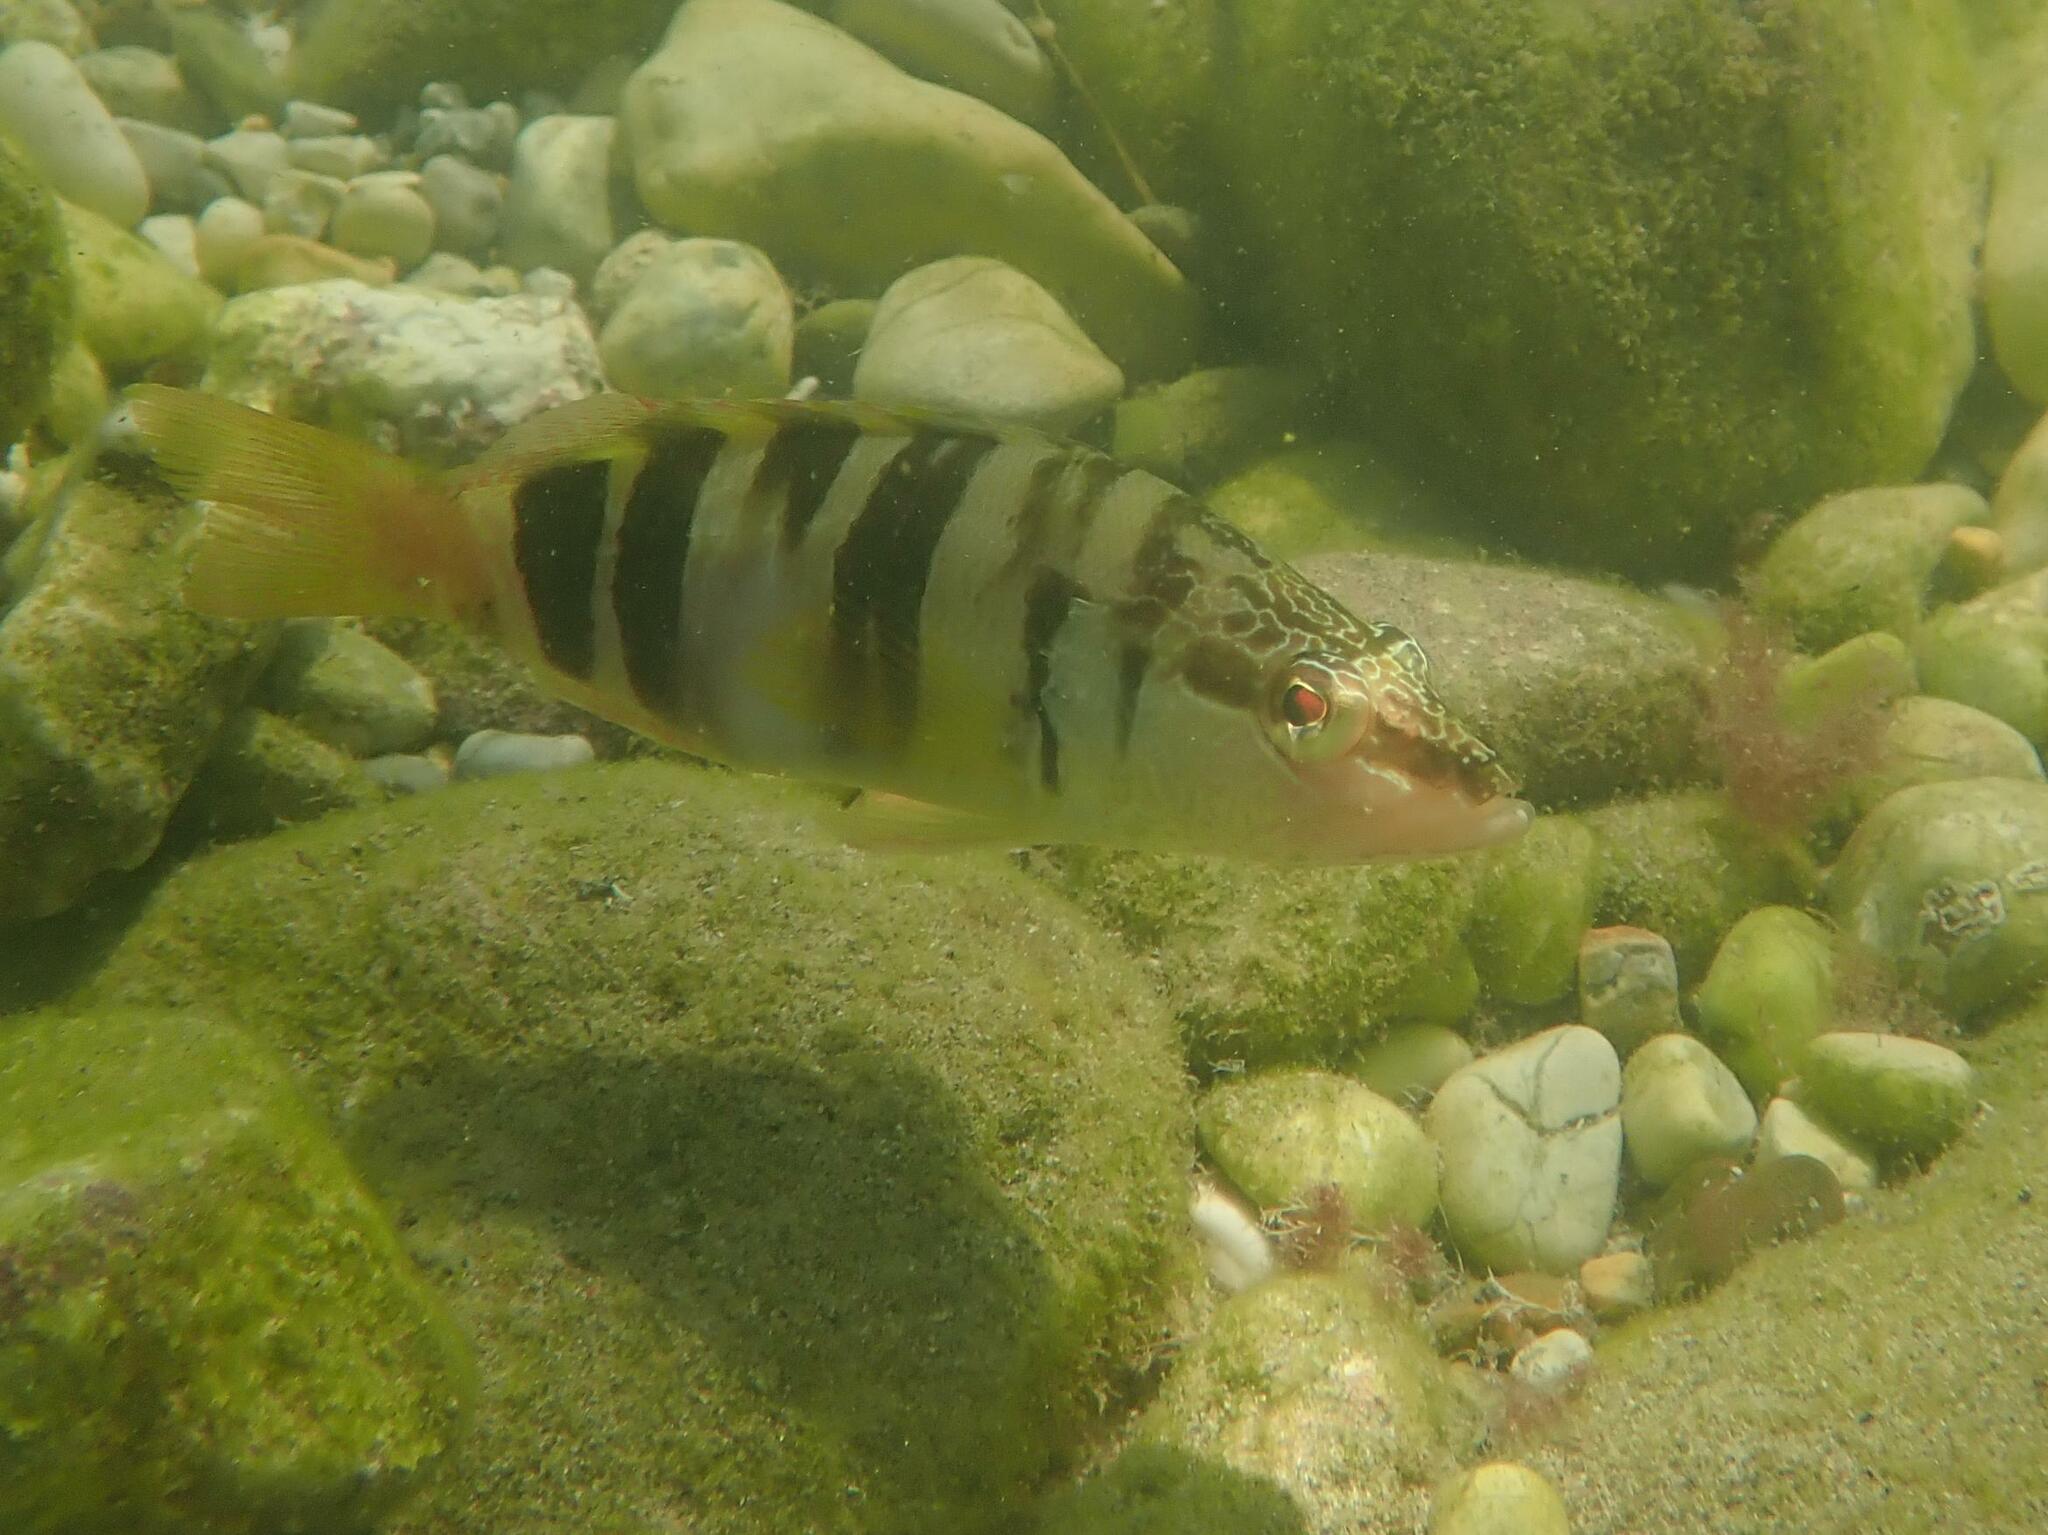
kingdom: Animalia
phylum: Chordata
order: Perciformes
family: Serranidae
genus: Serranus
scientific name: Serranus scriba
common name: Painted comber
